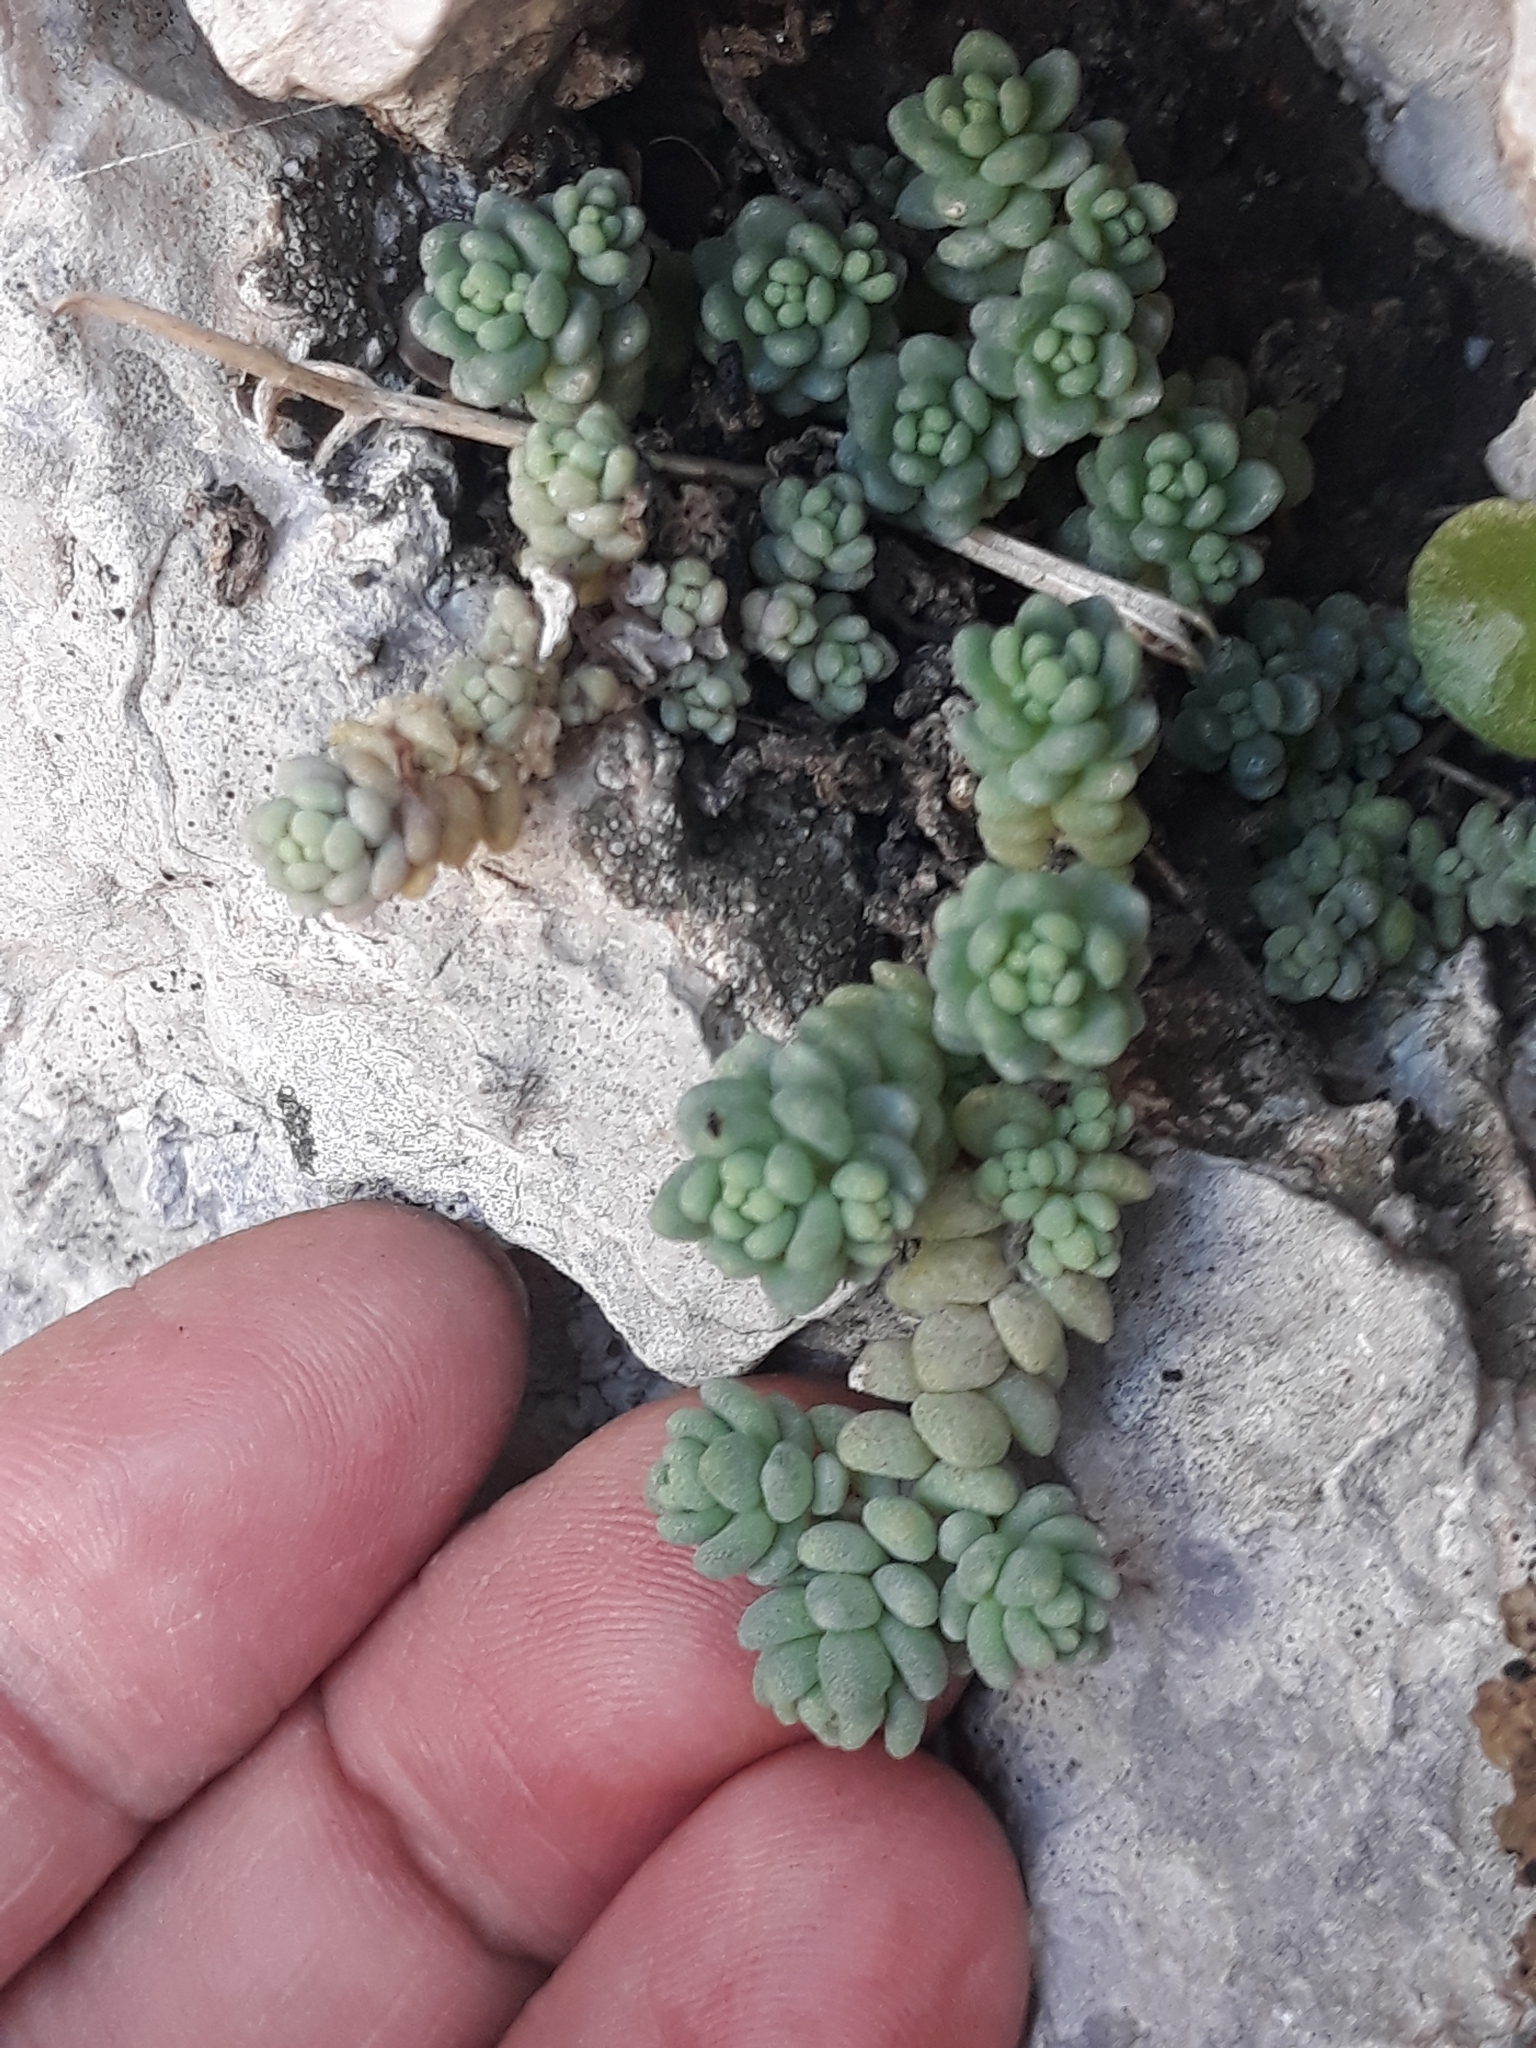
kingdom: Plantae
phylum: Tracheophyta
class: Magnoliopsida
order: Saxifragales
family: Crassulaceae
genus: Sedum
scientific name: Sedum dasyphyllum
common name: Thick-leaf stonecrop
